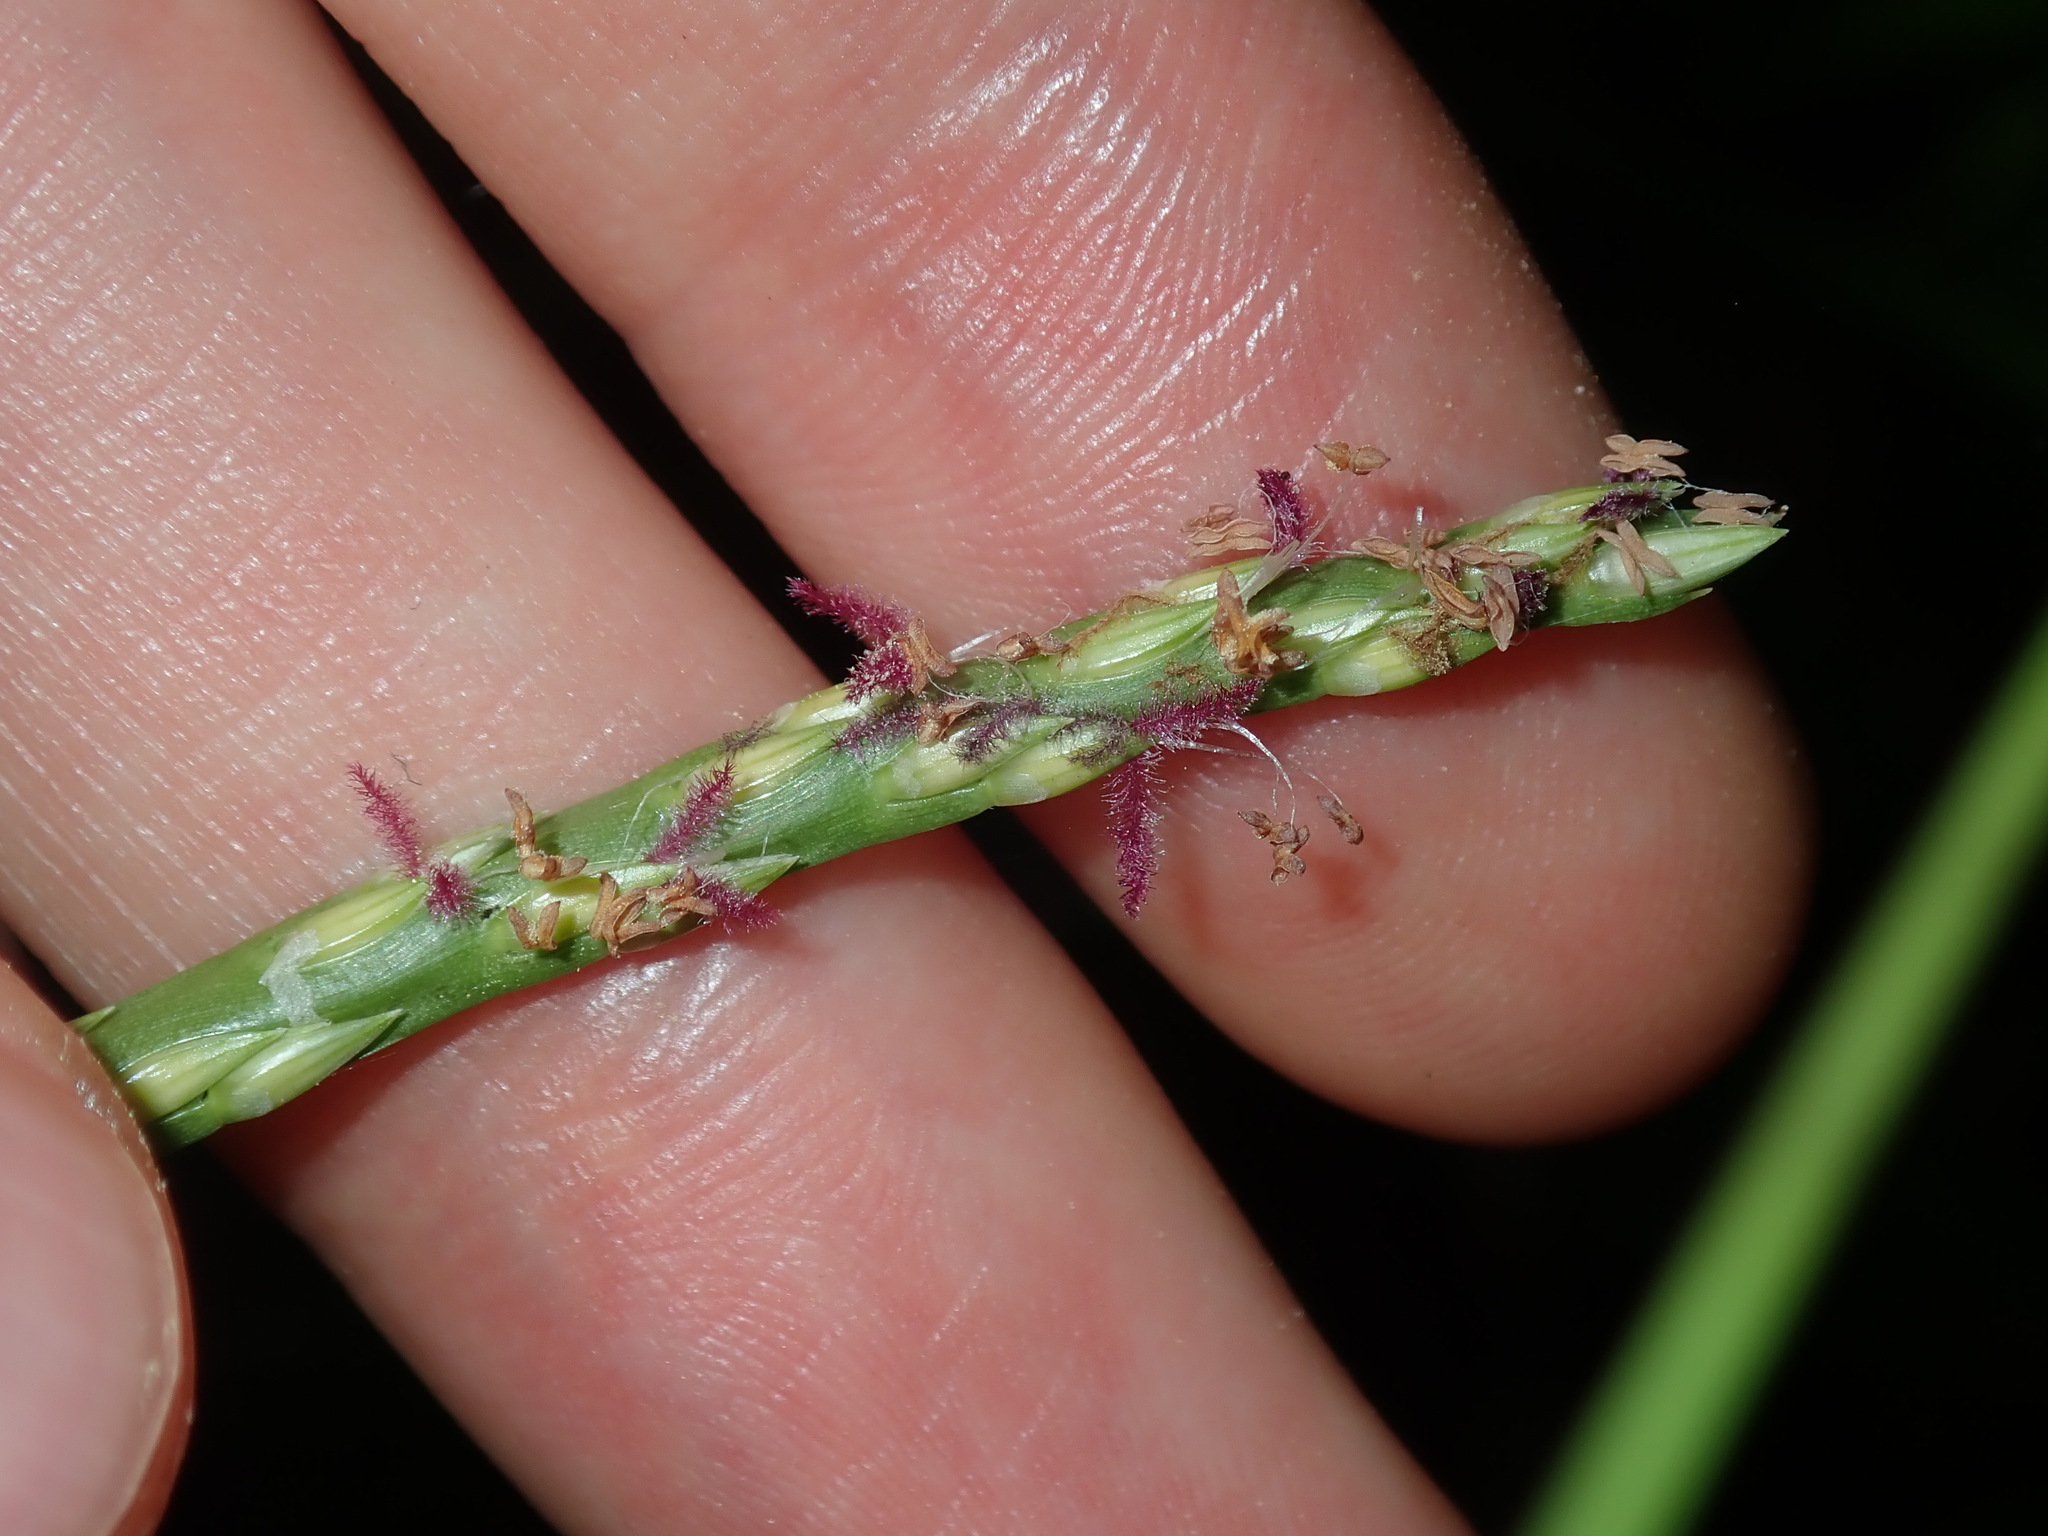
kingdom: Plantae
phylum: Tracheophyta
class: Liliopsida
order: Poales
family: Poaceae
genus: Stenotaphrum
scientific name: Stenotaphrum secundatum
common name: St. augustine grass
